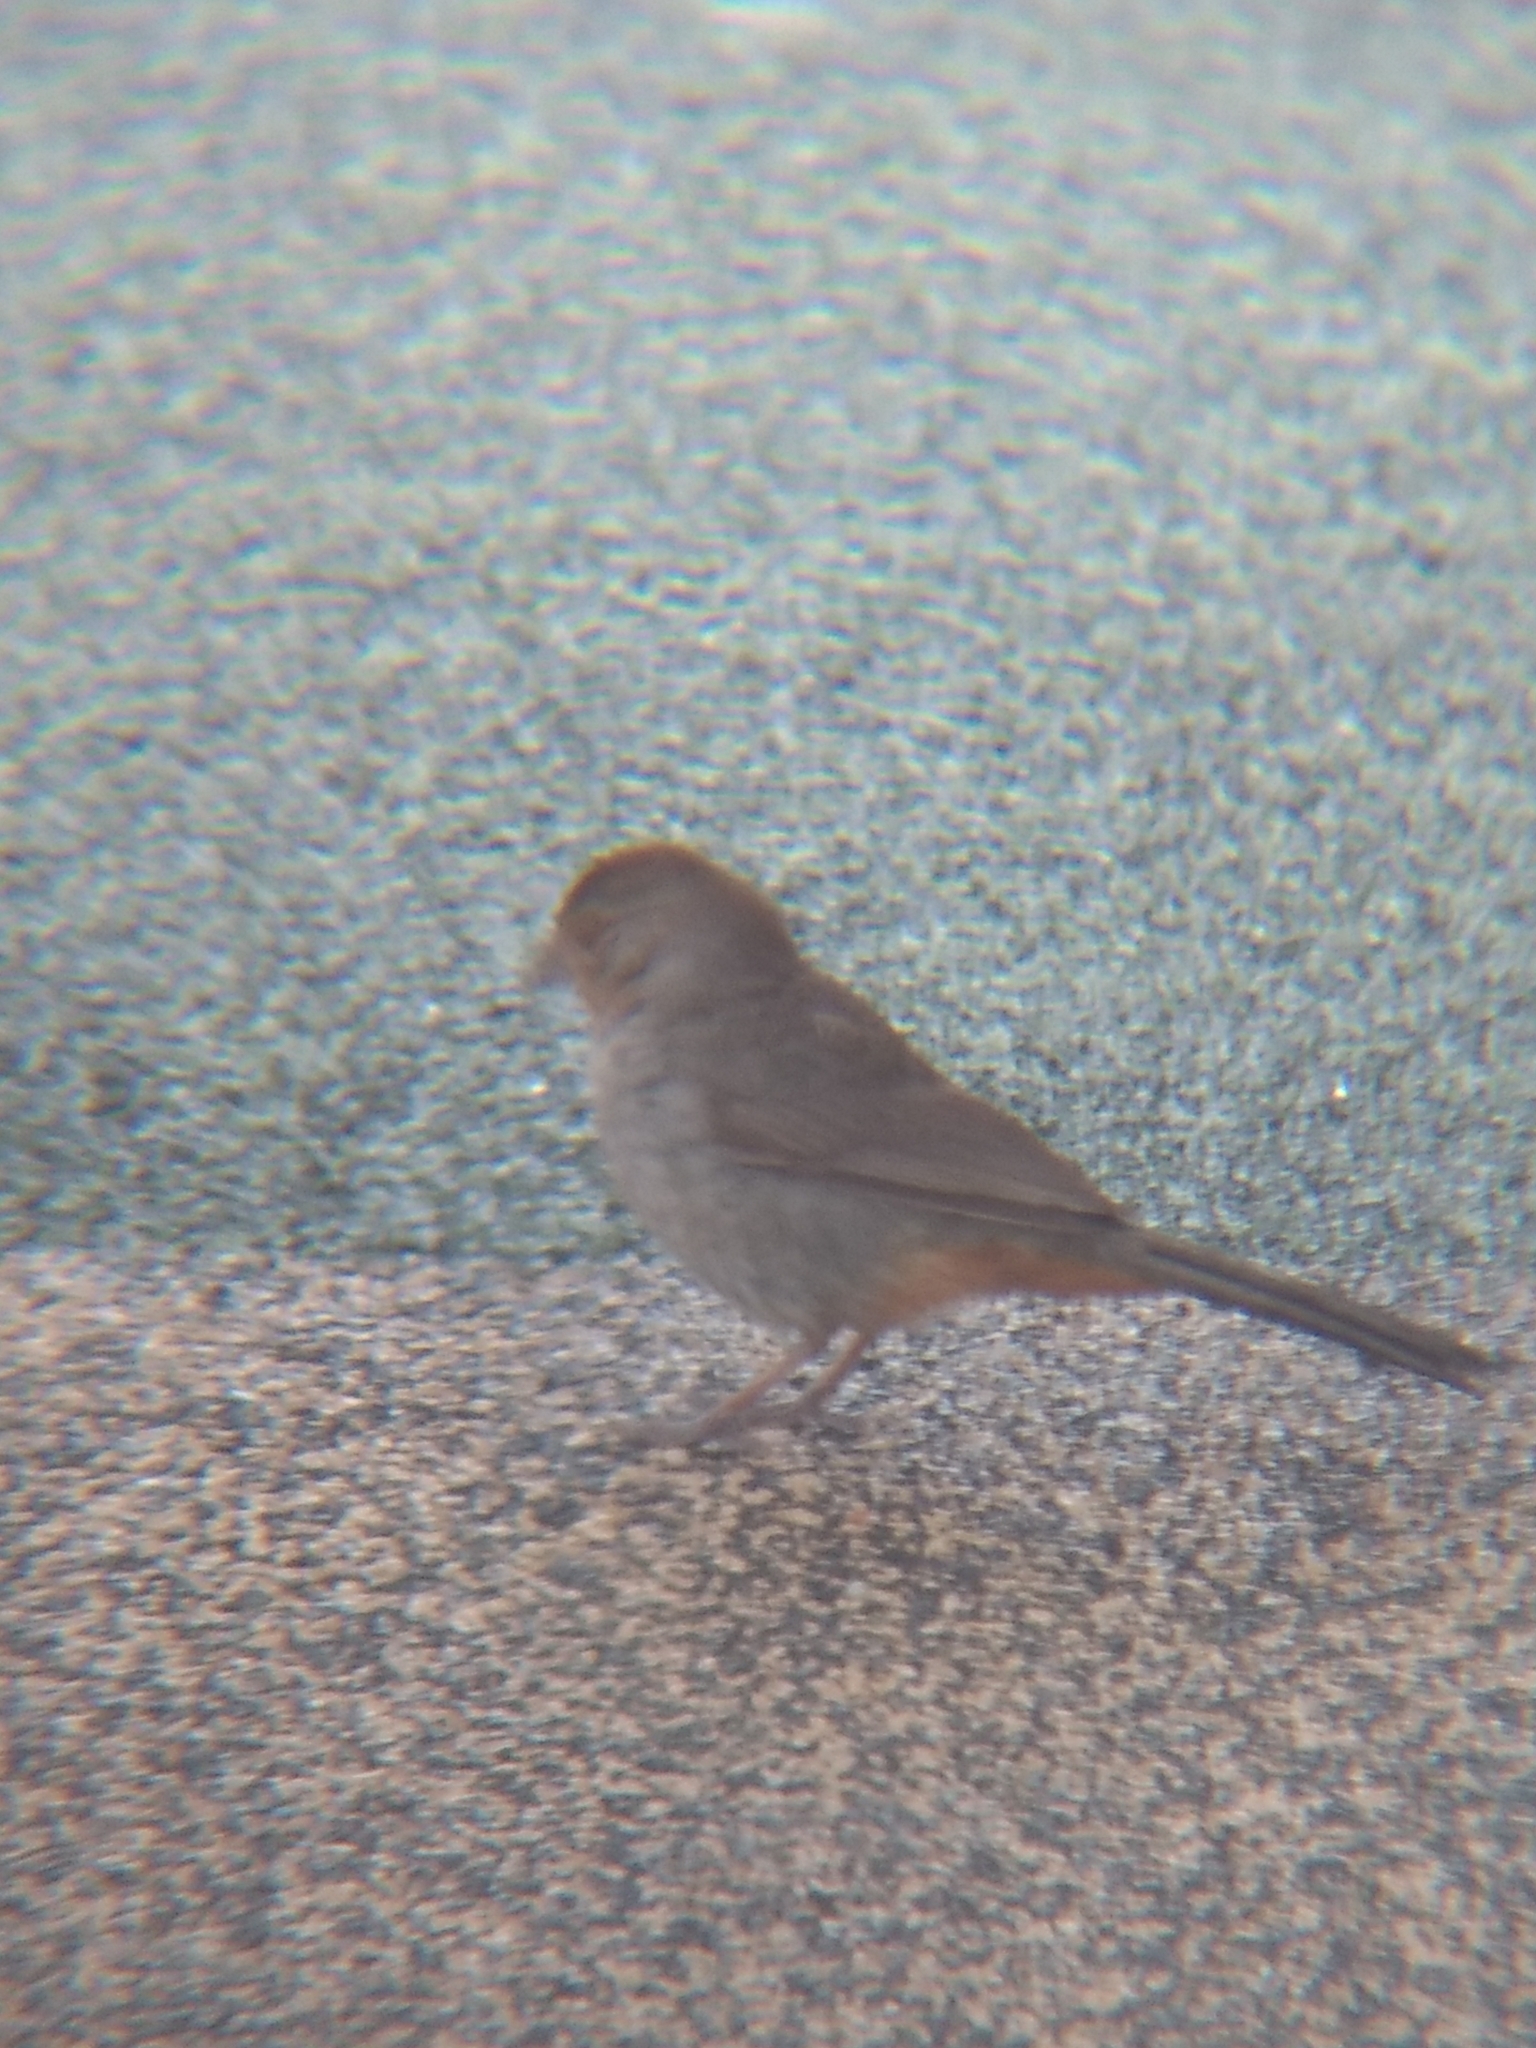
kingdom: Animalia
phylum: Chordata
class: Aves
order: Passeriformes
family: Passerellidae
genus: Melozone
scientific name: Melozone crissalis
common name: California towhee
